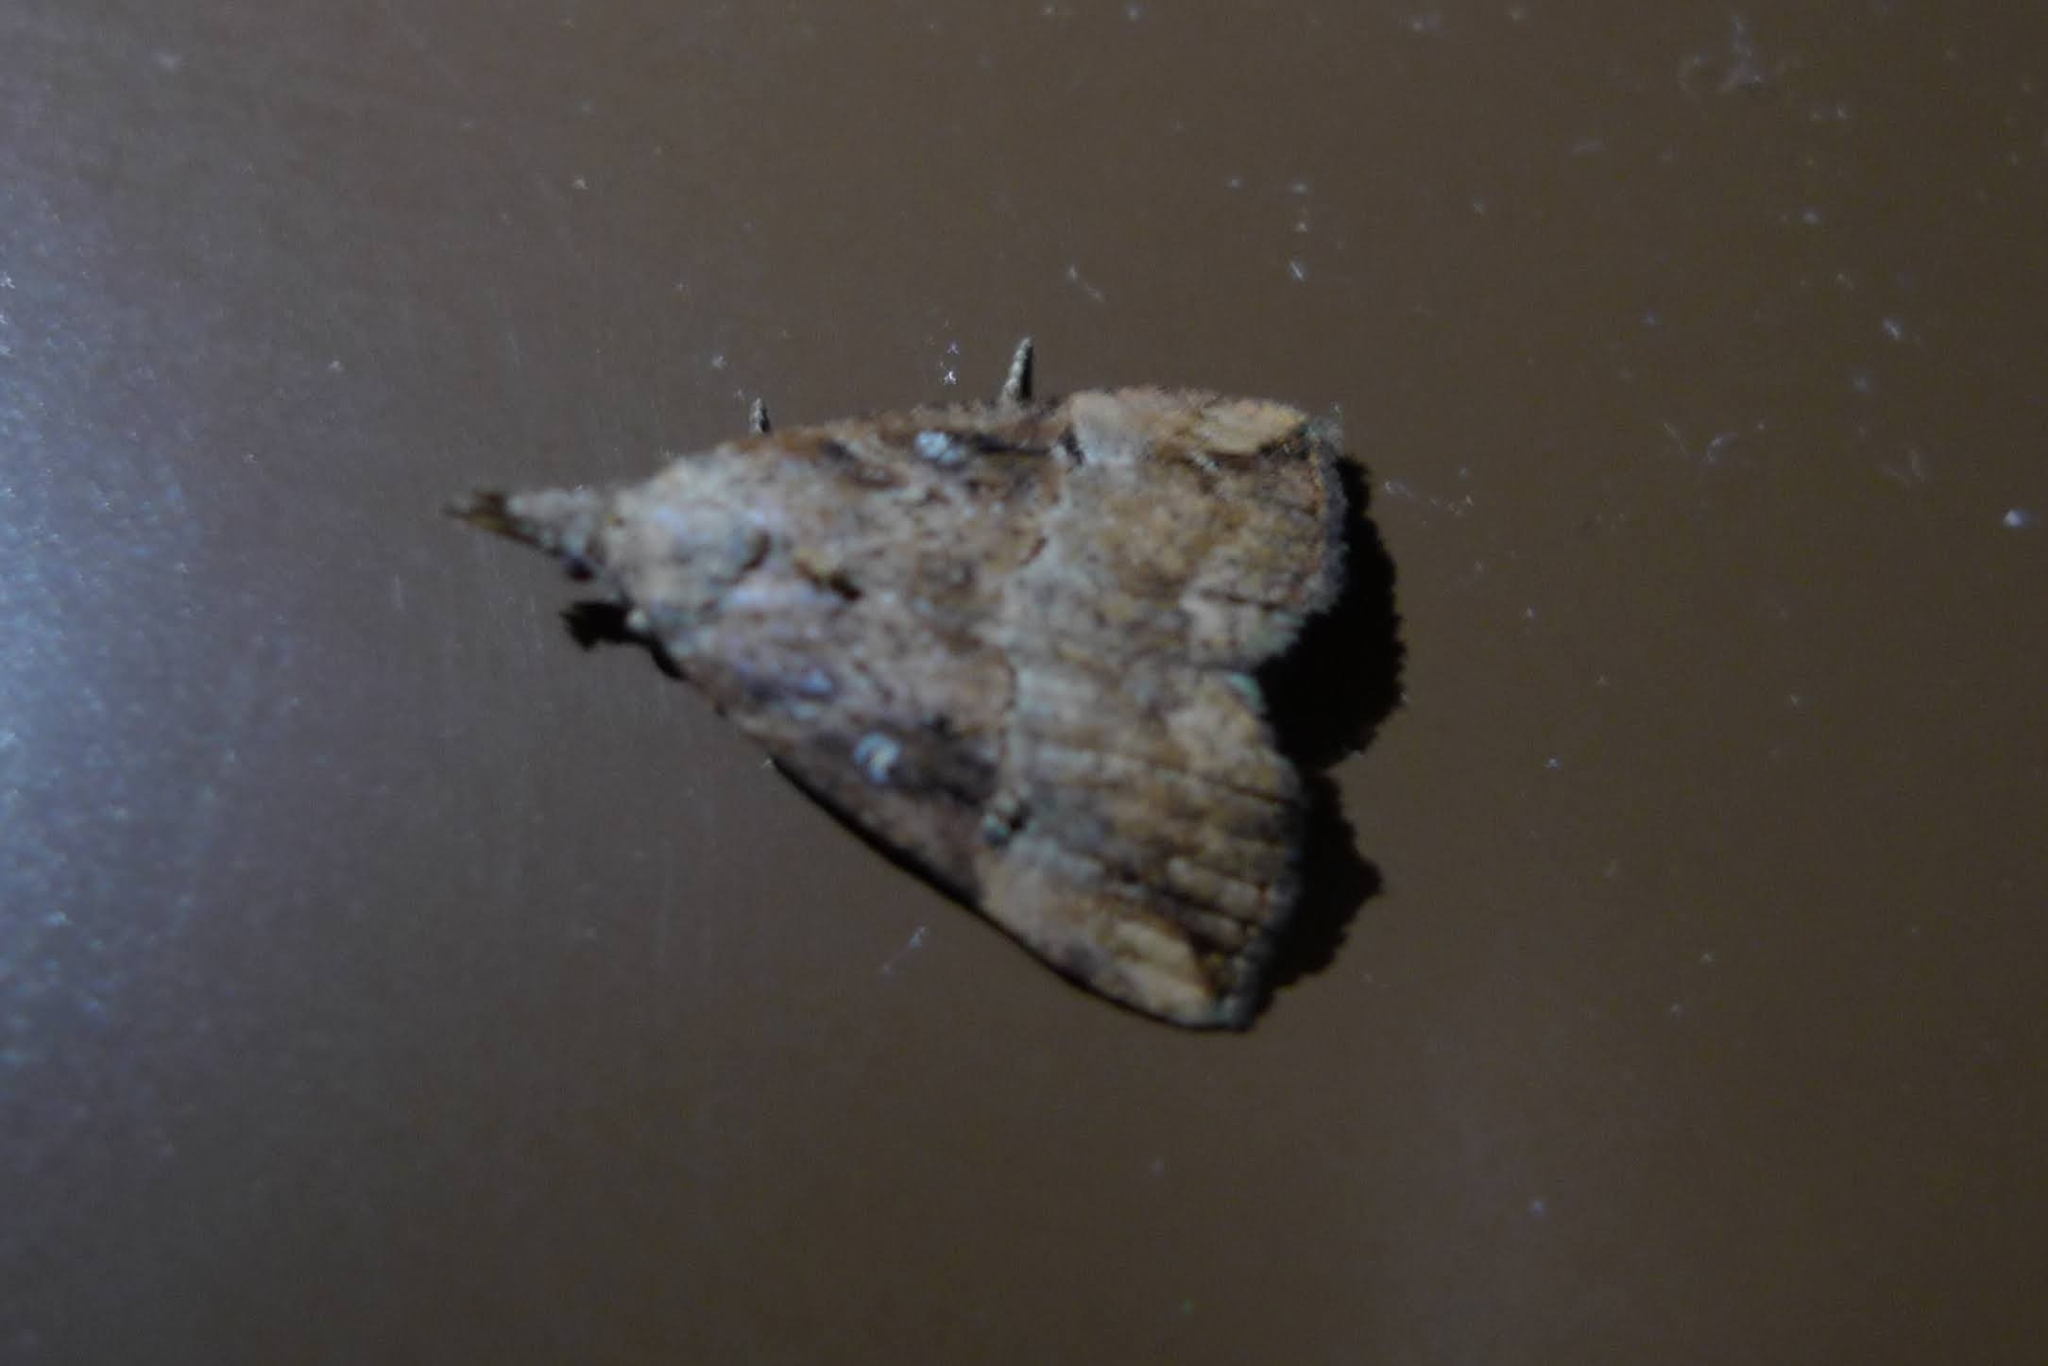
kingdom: Animalia
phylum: Arthropoda
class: Insecta
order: Lepidoptera
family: Erebidae
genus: Hypena
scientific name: Hypena rostralis
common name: Buttoned snout
